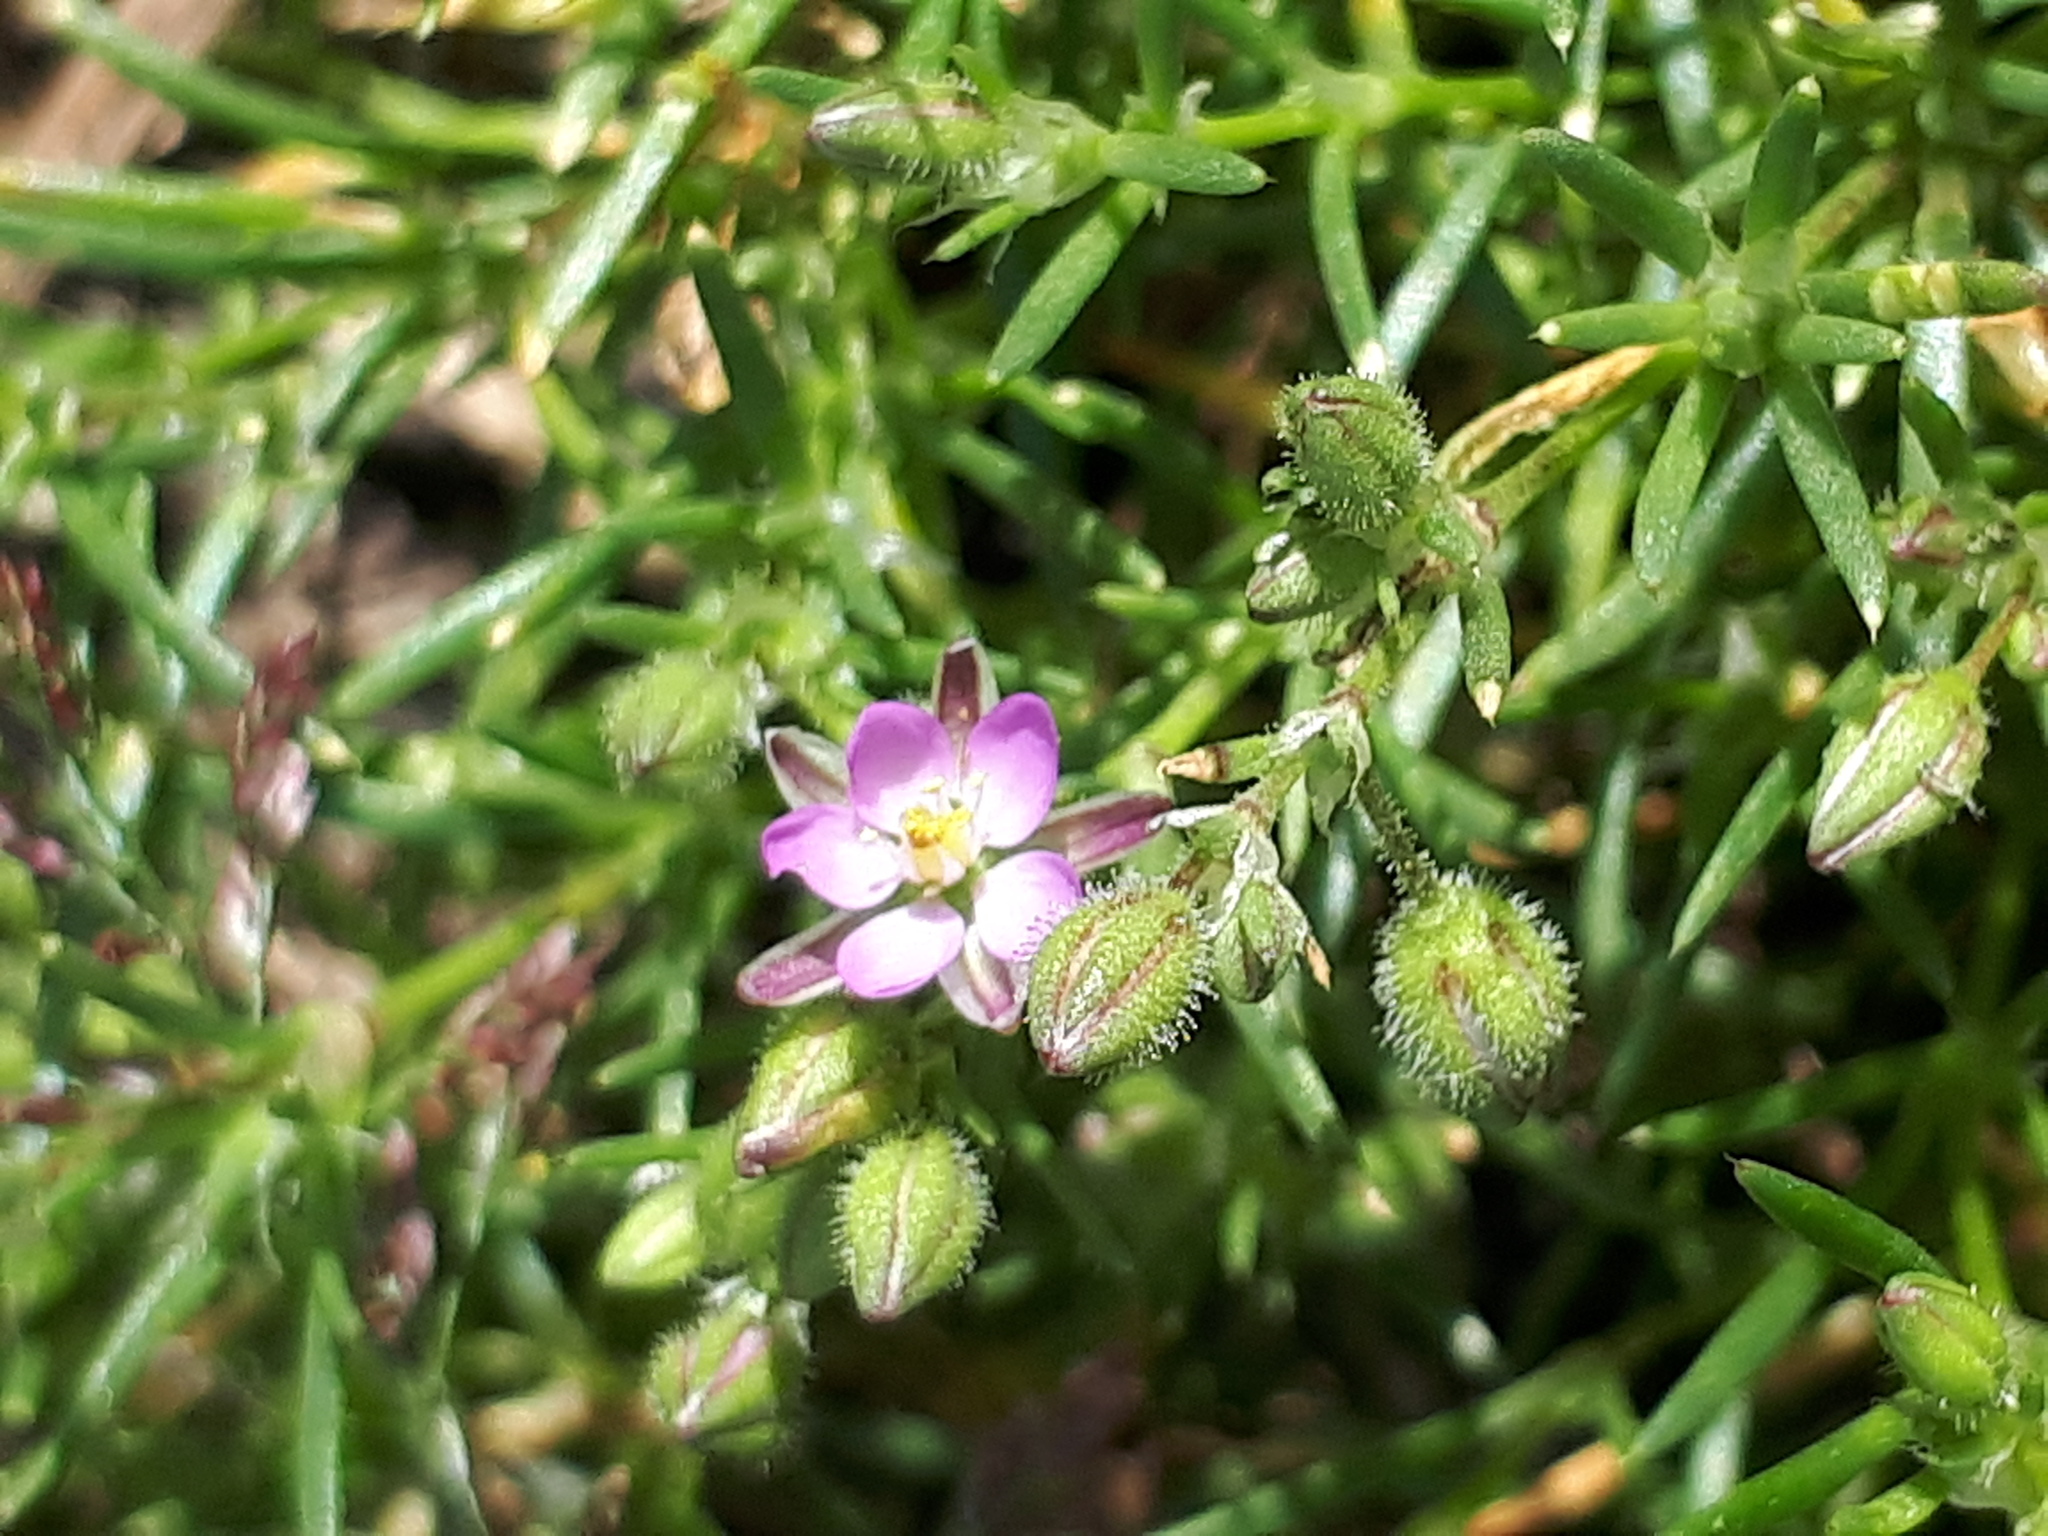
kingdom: Plantae
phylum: Tracheophyta
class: Magnoliopsida
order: Caryophyllales
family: Caryophyllaceae
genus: Spergularia
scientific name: Spergularia rubra
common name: Red sand-spurrey
